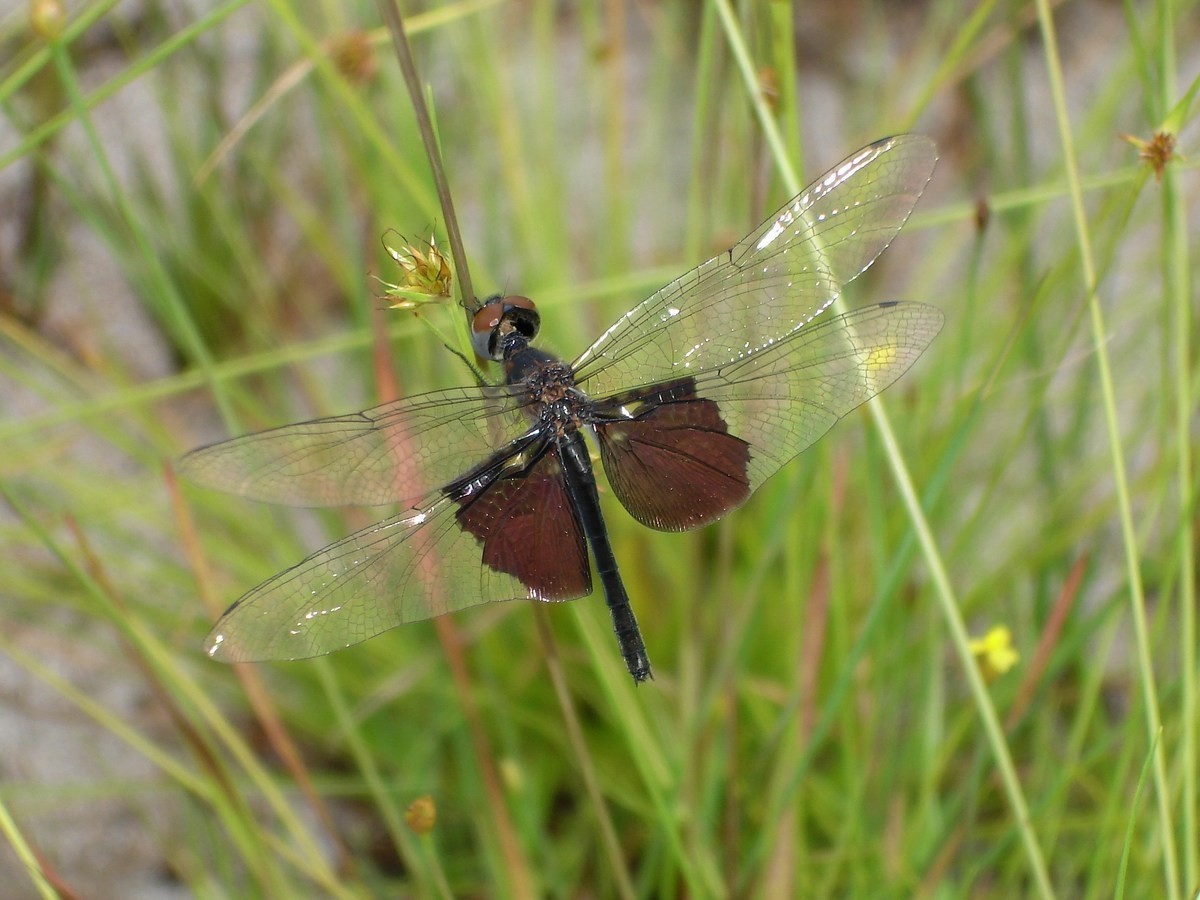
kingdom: Animalia
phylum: Arthropoda
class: Insecta
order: Odonata
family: Libellulidae
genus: Rhyothemis
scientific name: Rhyothemis semihyalina
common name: Phantom flutterer
